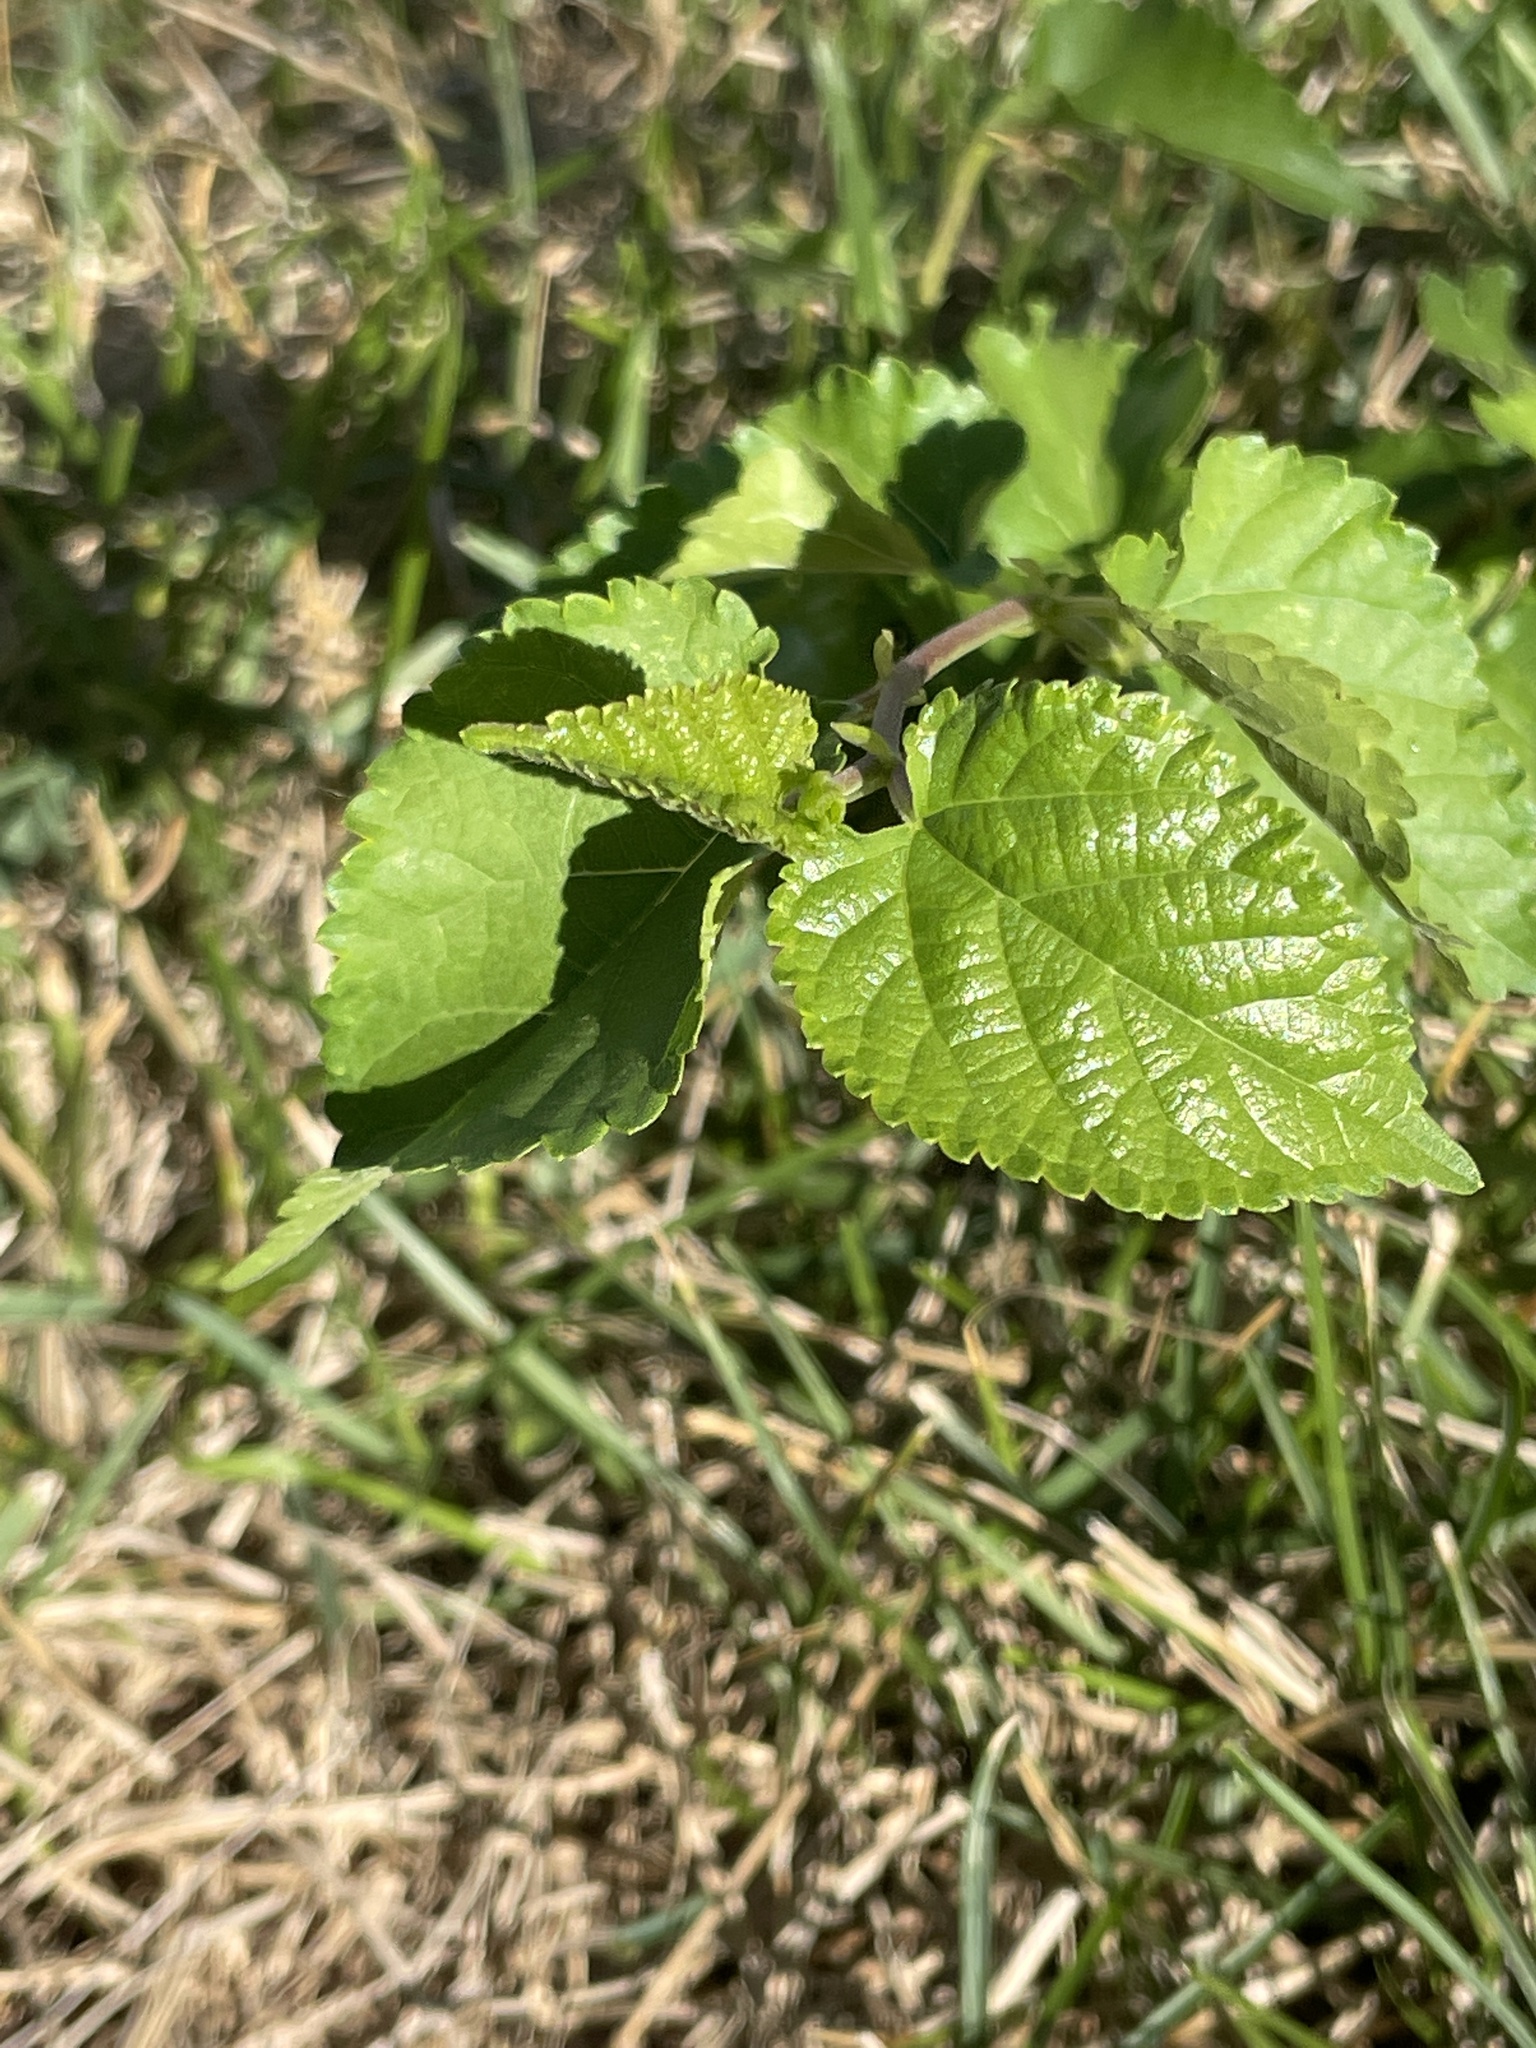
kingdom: Plantae
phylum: Tracheophyta
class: Magnoliopsida
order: Rosales
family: Moraceae
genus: Morus
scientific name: Morus alba
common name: White mulberry
